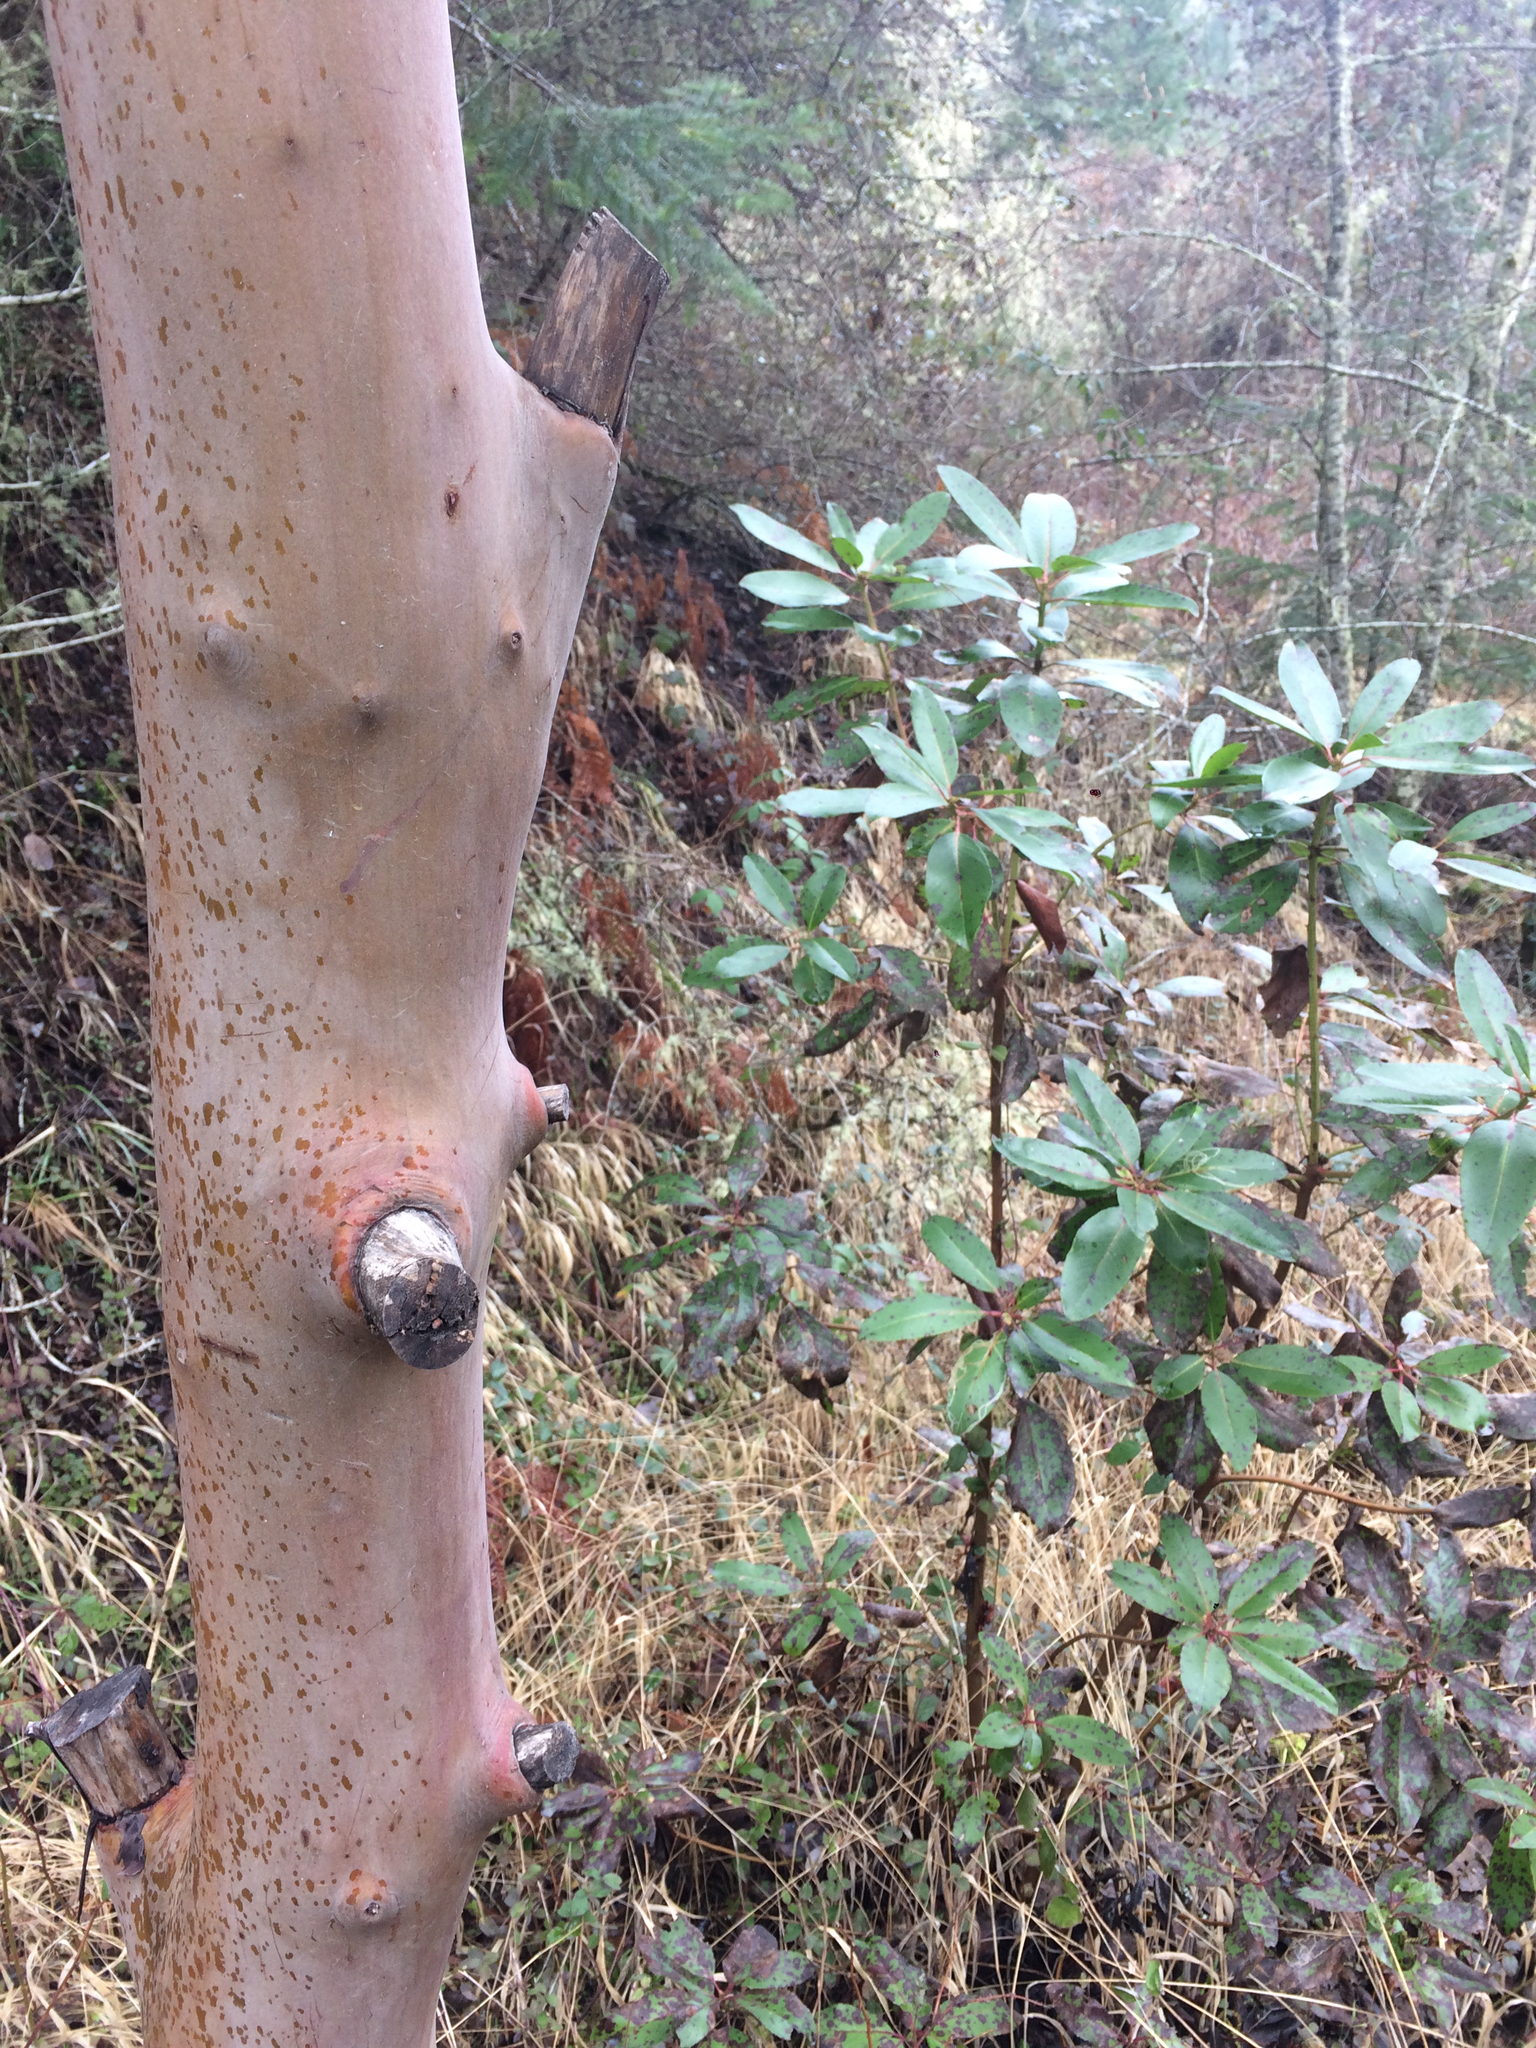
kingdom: Plantae
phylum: Tracheophyta
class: Magnoliopsida
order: Ericales
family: Ericaceae
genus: Arbutus
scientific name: Arbutus menziesii
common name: Pacific madrone
